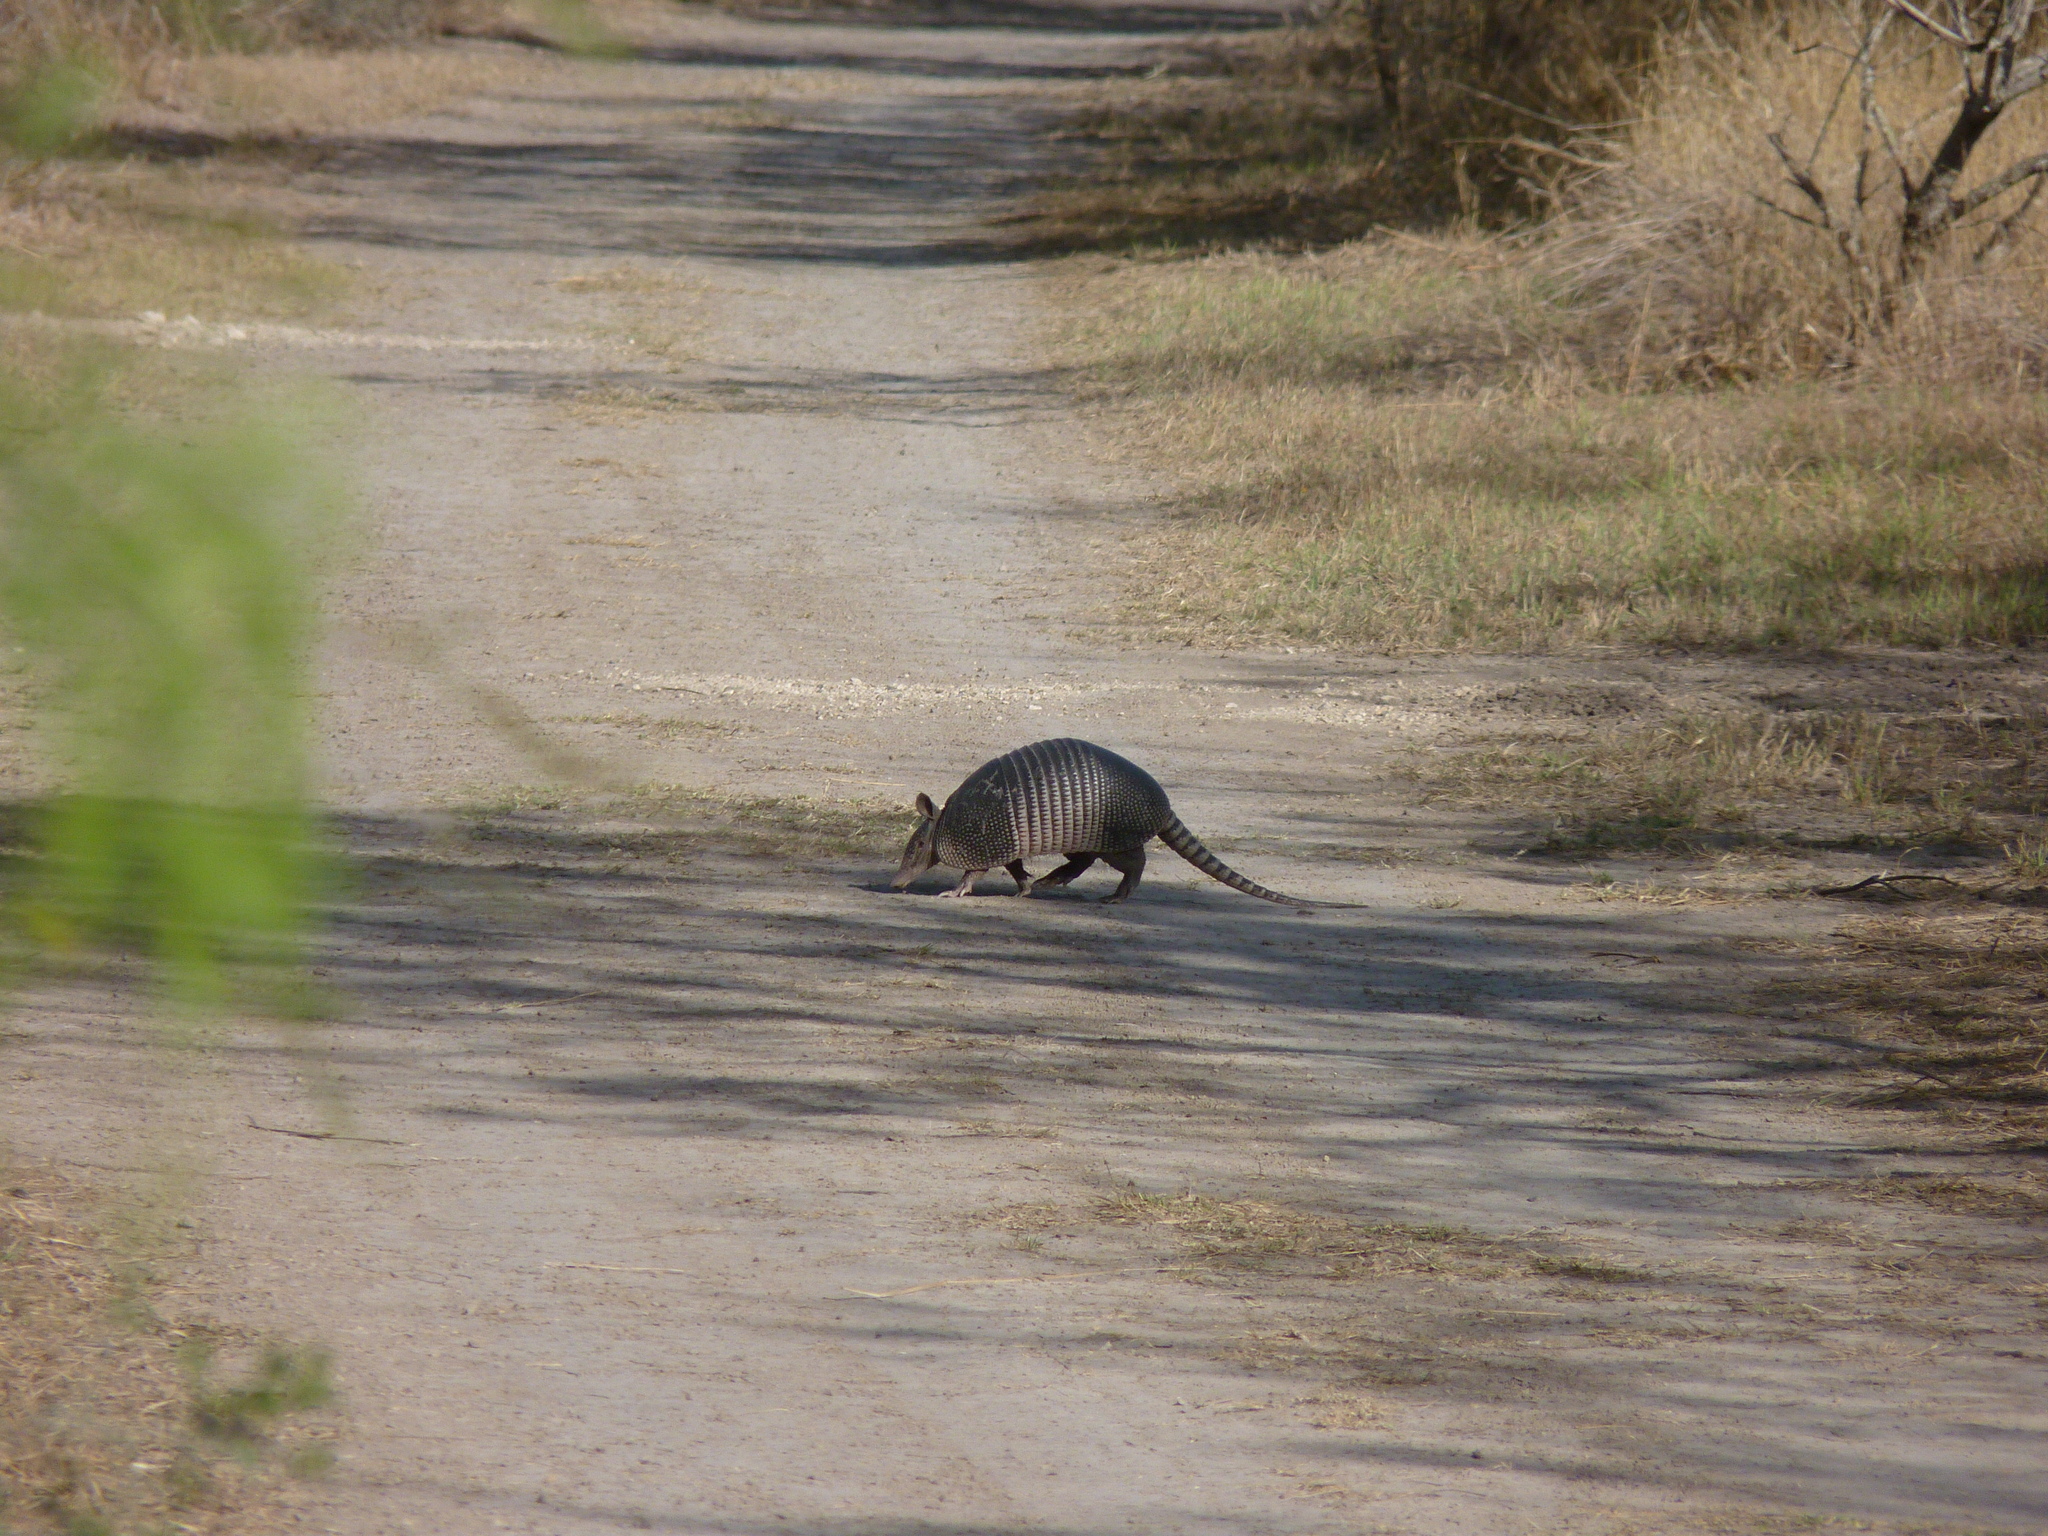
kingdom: Animalia
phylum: Chordata
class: Mammalia
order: Cingulata
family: Dasypodidae
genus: Dasypus
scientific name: Dasypus novemcinctus
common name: Nine-banded armadillo
